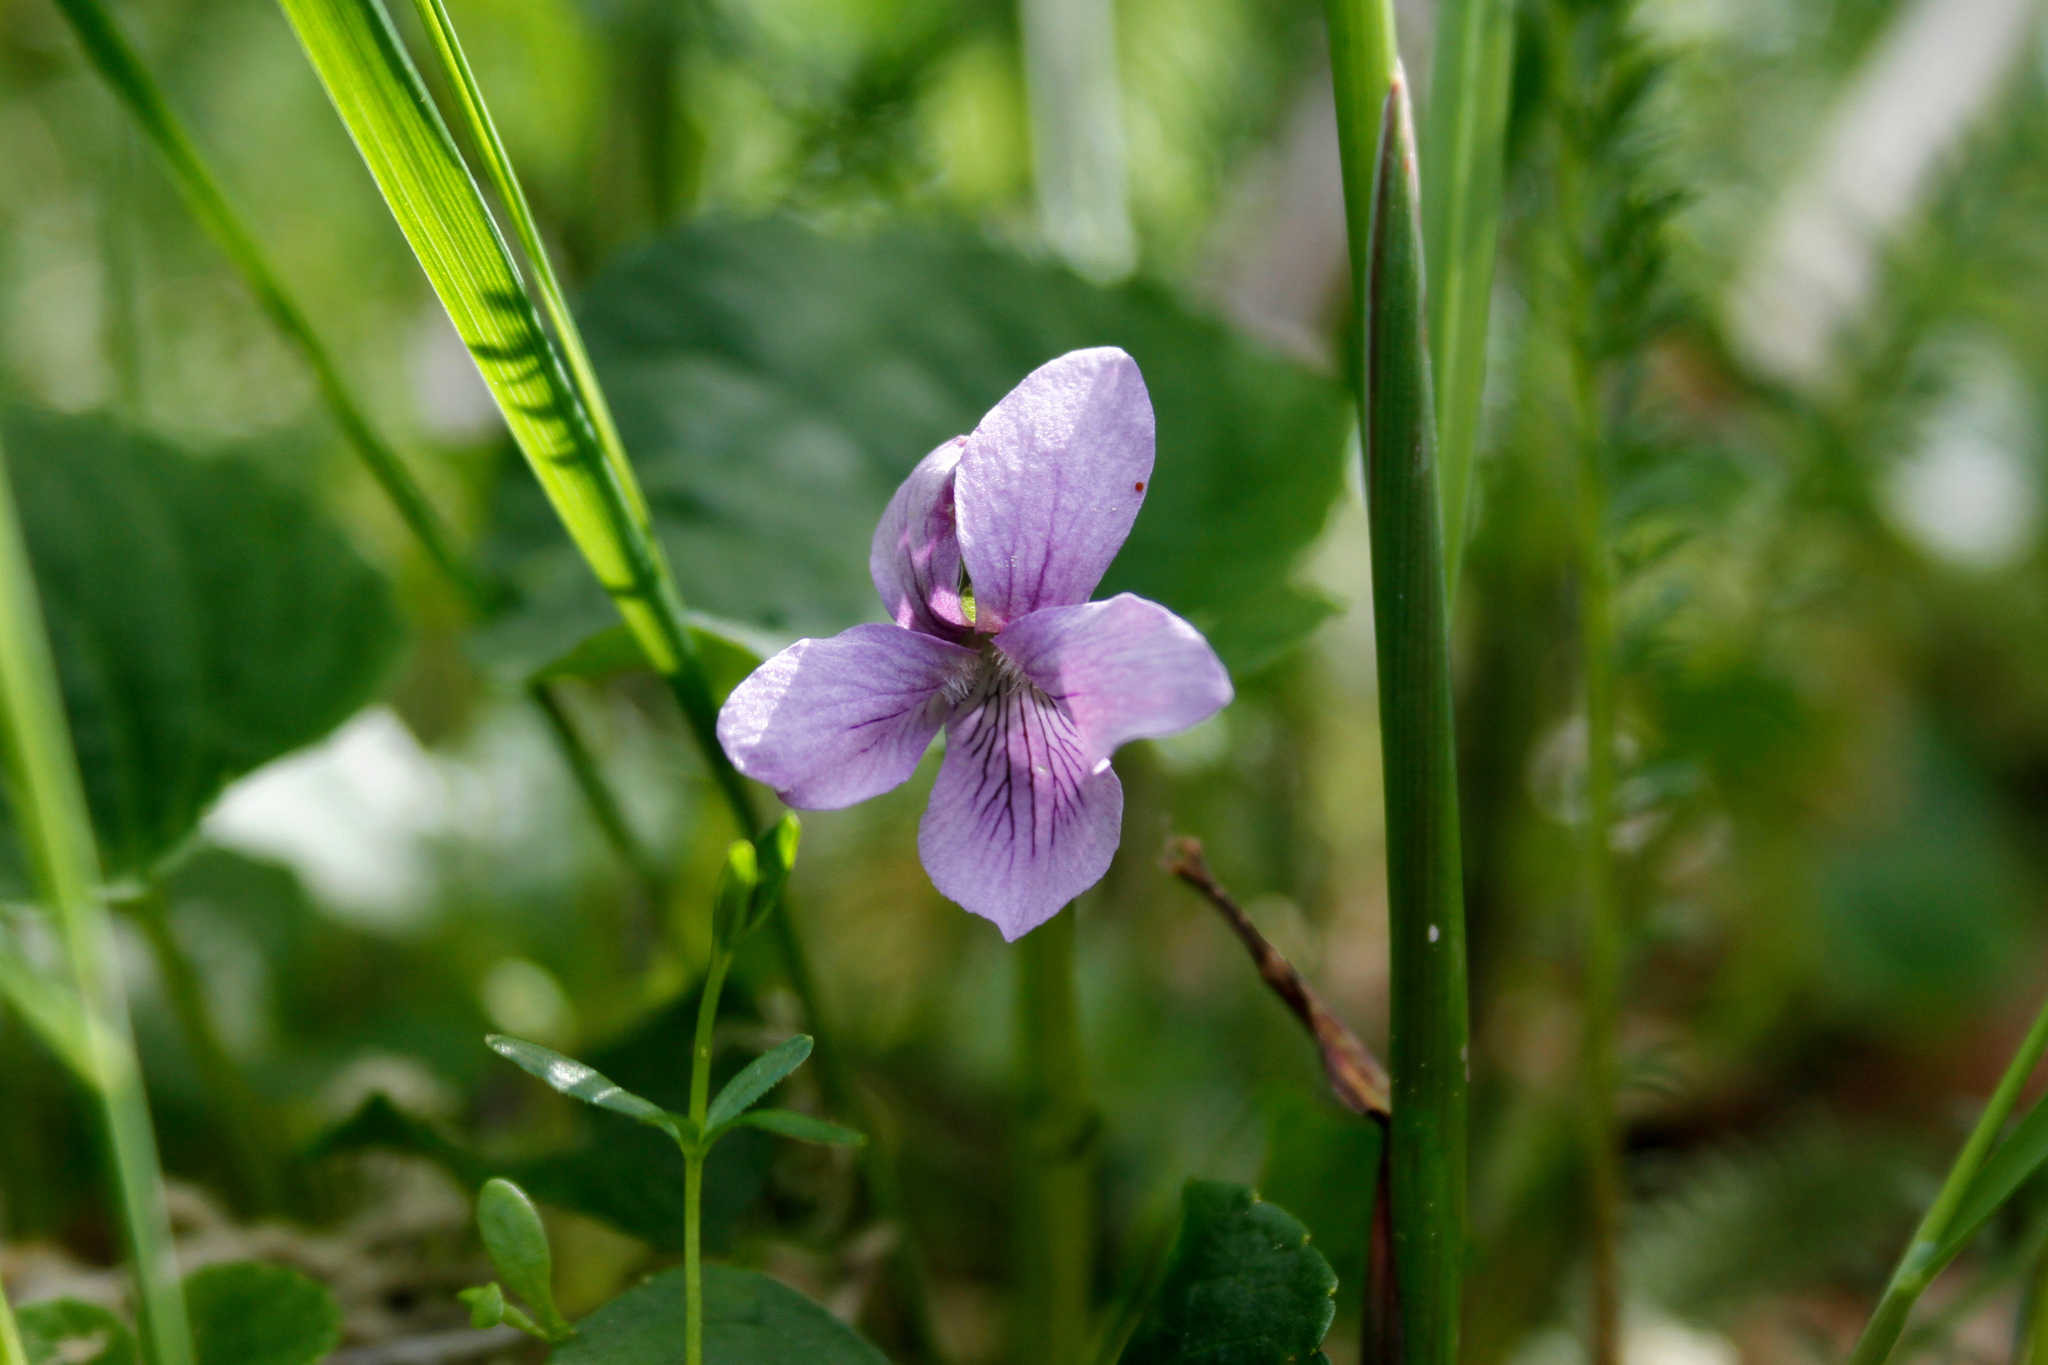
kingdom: Plantae
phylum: Tracheophyta
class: Magnoliopsida
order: Malpighiales
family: Violaceae
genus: Viola
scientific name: Viola epipsila
